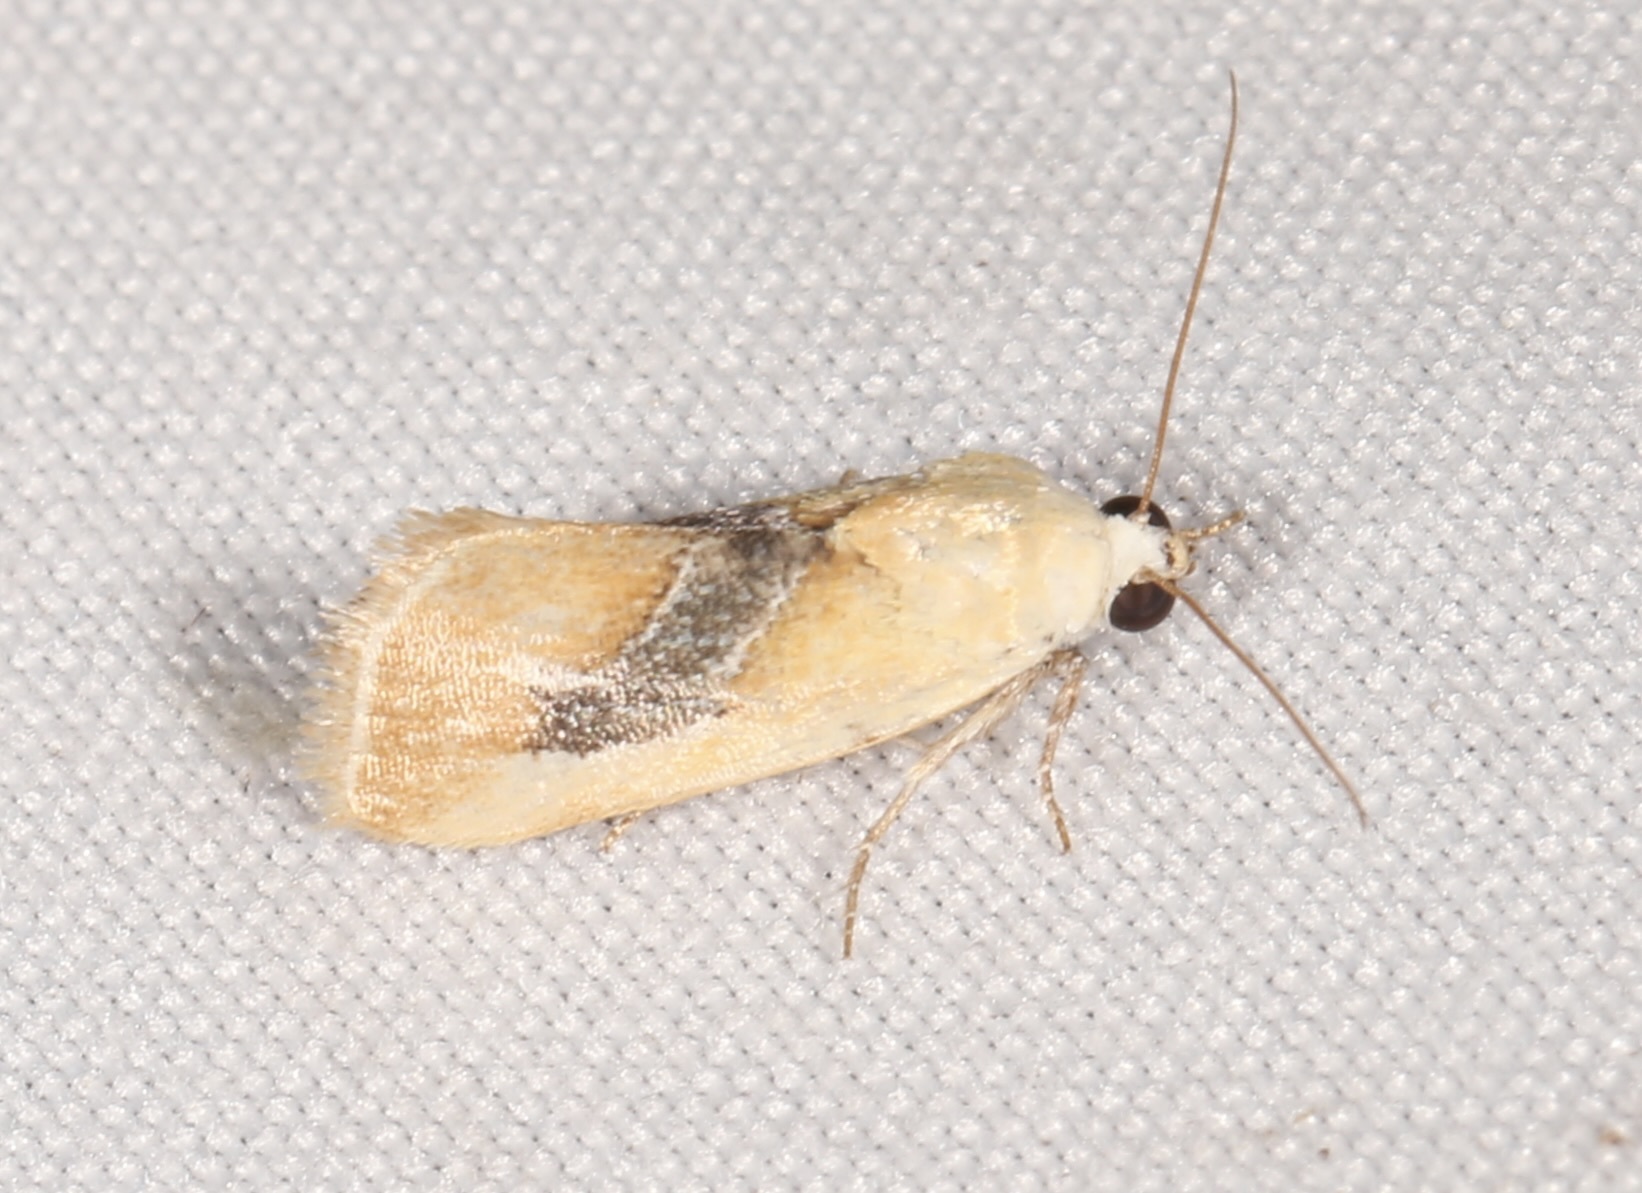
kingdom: Animalia
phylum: Arthropoda
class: Insecta
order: Lepidoptera
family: Noctuidae
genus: Ponometia
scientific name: Ponometia venustula
